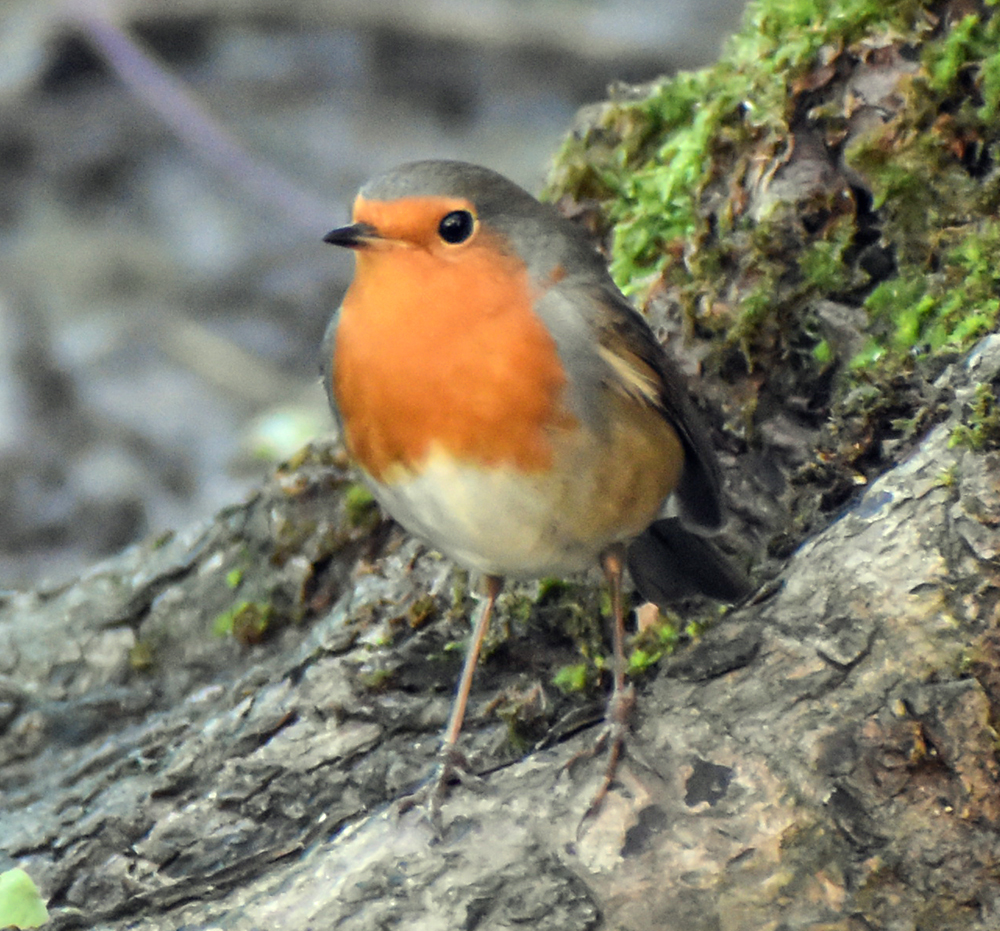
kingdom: Animalia
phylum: Chordata
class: Aves
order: Passeriformes
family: Muscicapidae
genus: Erithacus
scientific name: Erithacus rubecula
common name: European robin
